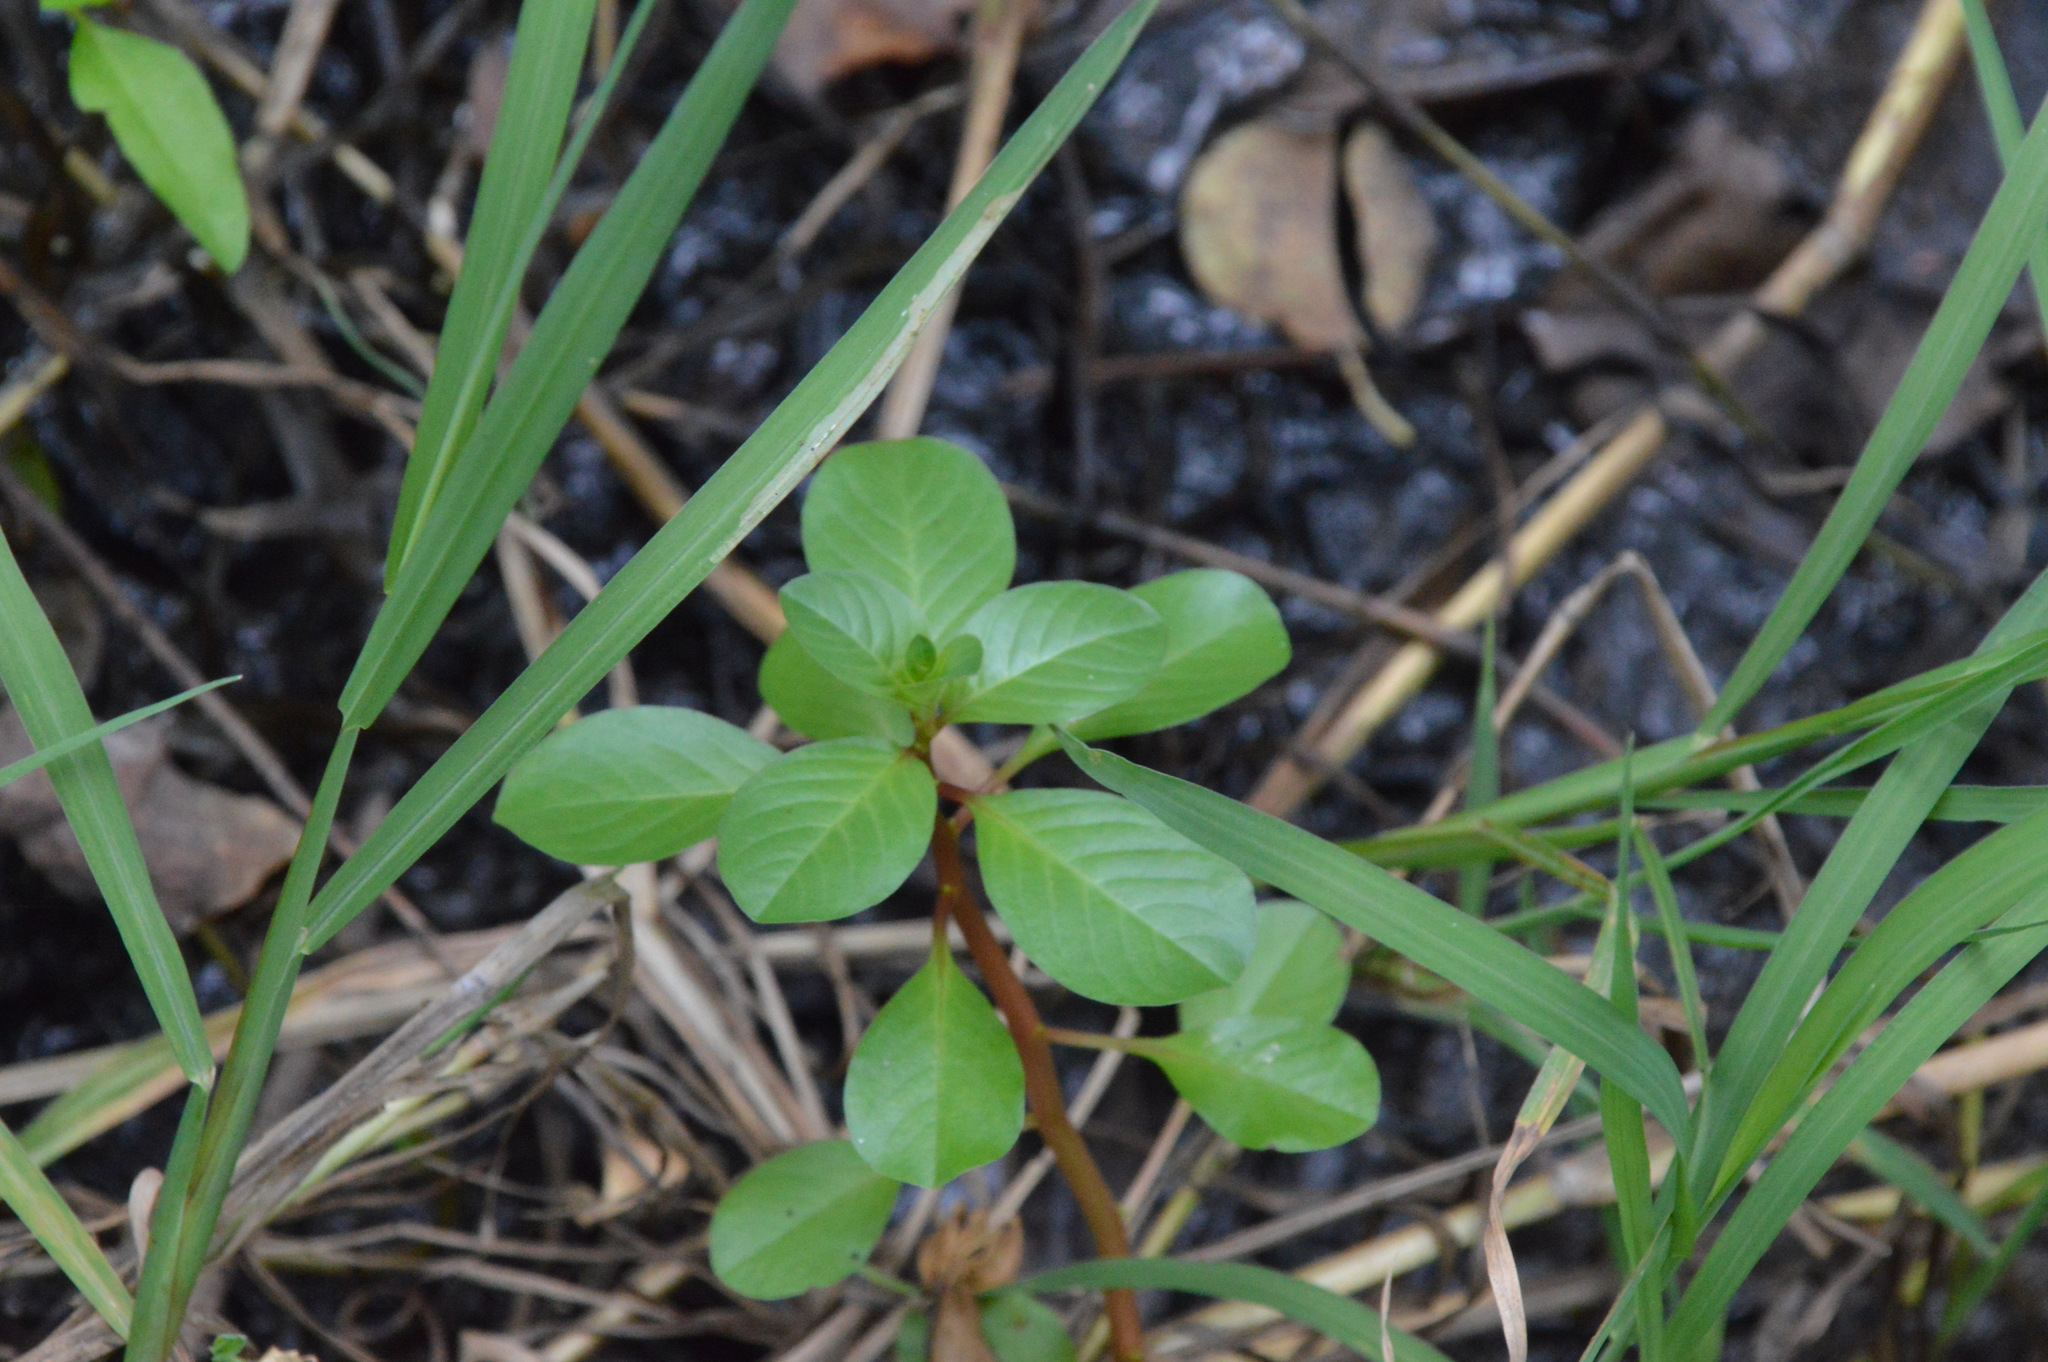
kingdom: Plantae
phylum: Tracheophyta
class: Magnoliopsida
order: Myrtales
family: Onagraceae
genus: Ludwigia
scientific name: Ludwigia peploides
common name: Floating primrose-willow
